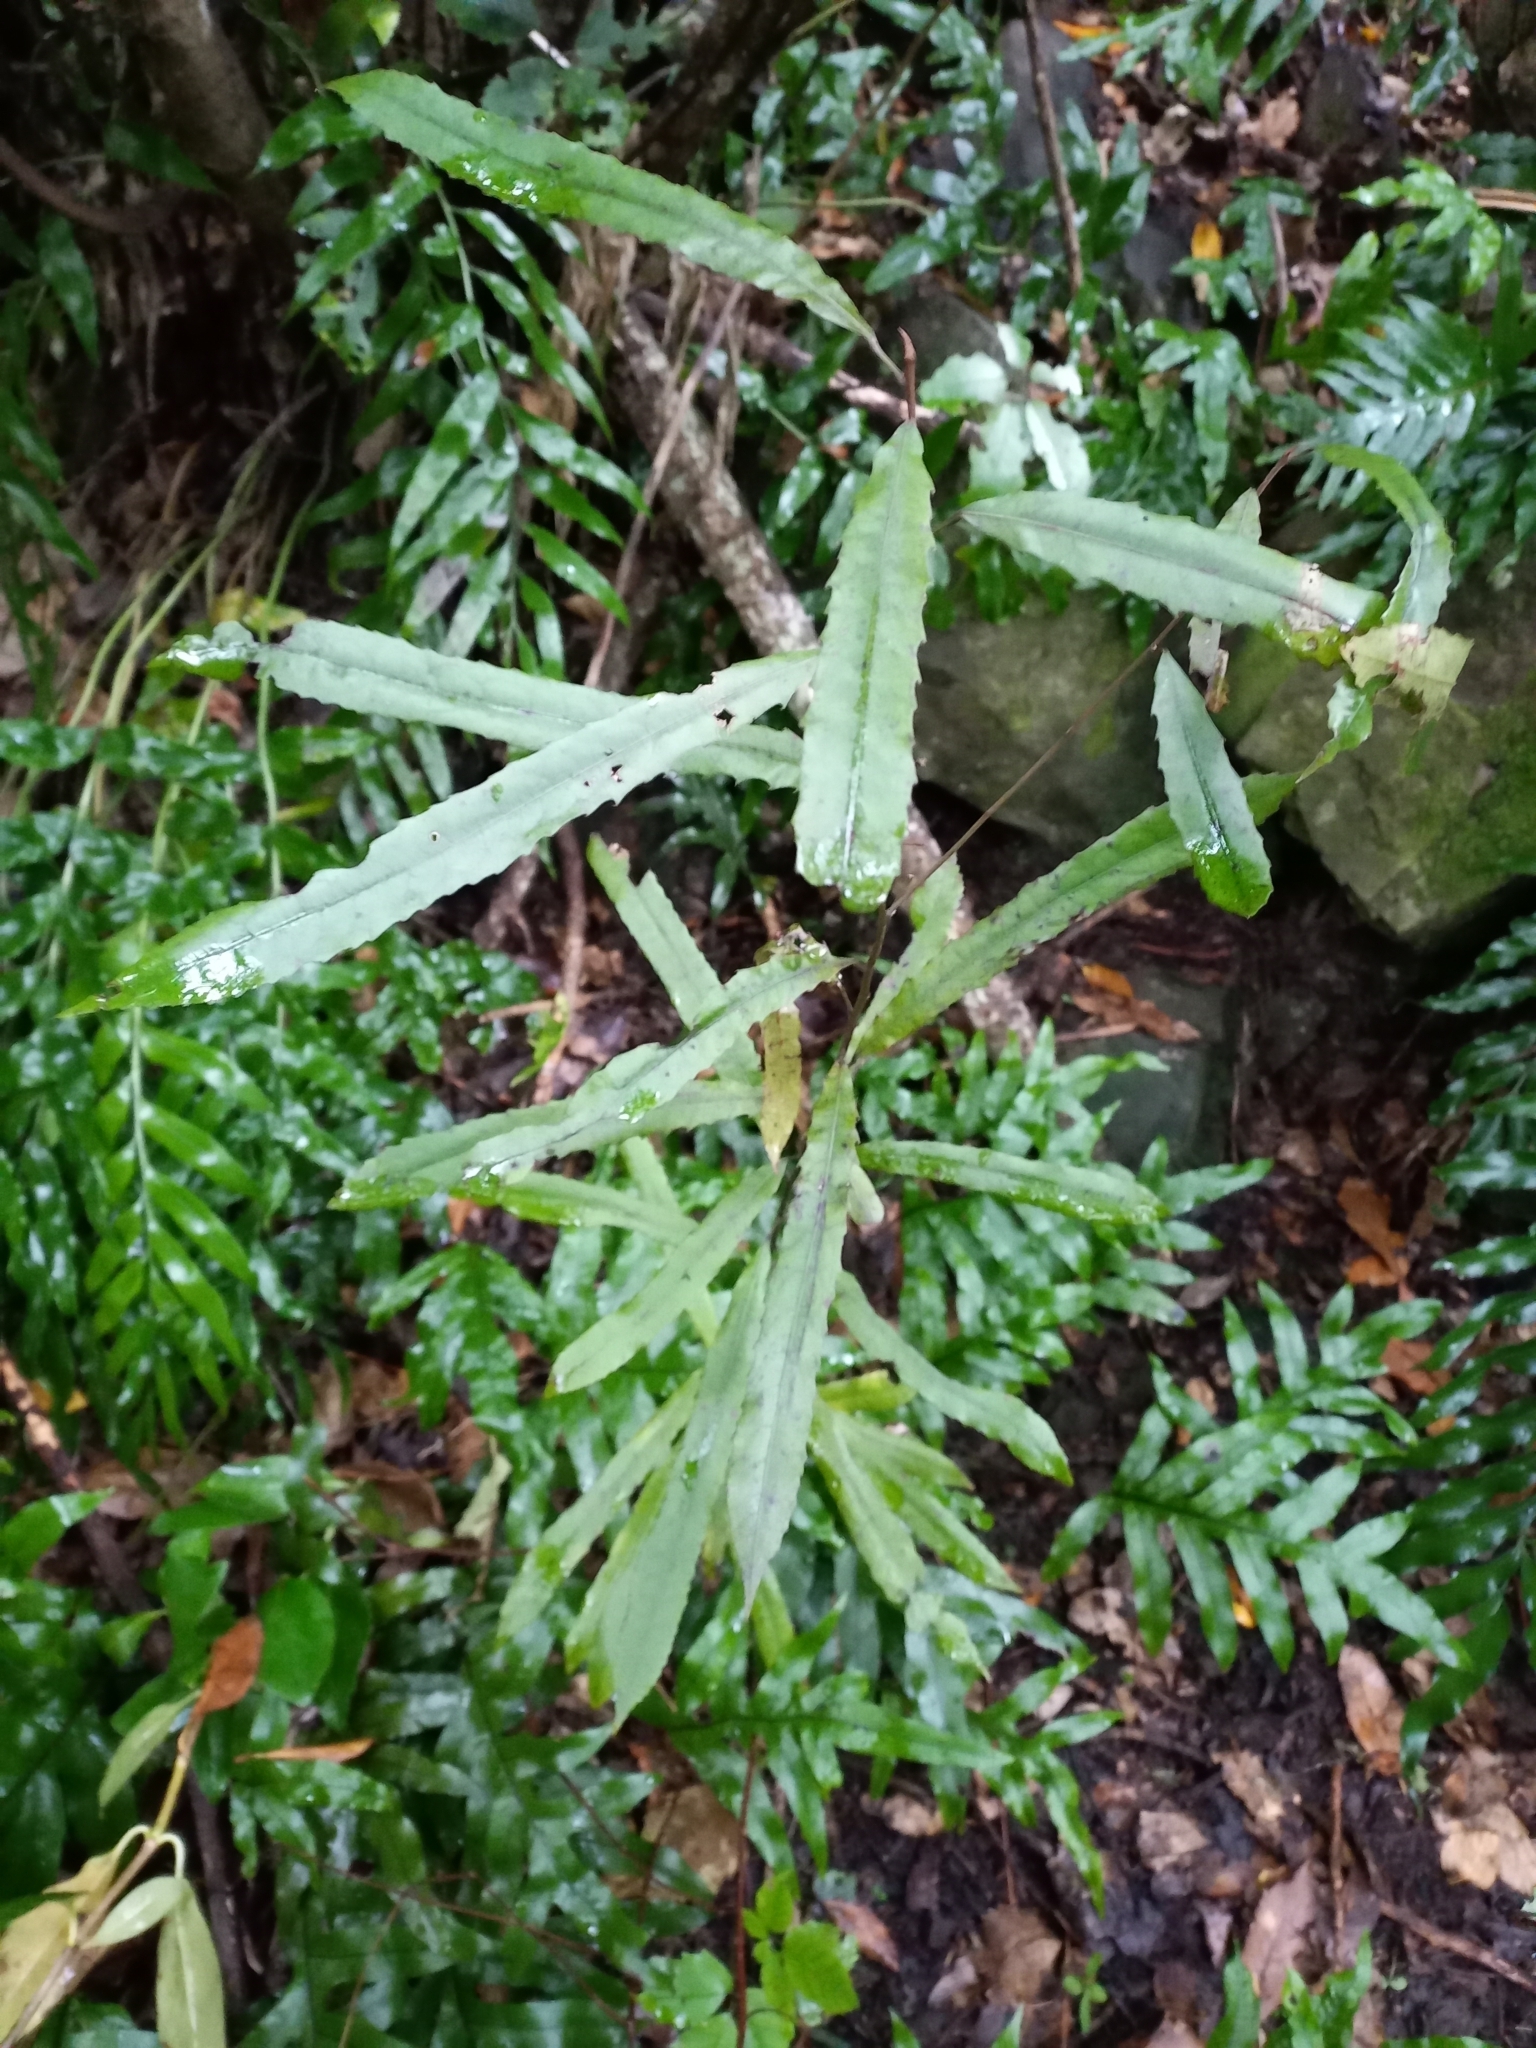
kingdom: Plantae
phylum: Tracheophyta
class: Magnoliopsida
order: Oxalidales
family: Elaeocarpaceae
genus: Elaeocarpus
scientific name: Elaeocarpus dentatus
